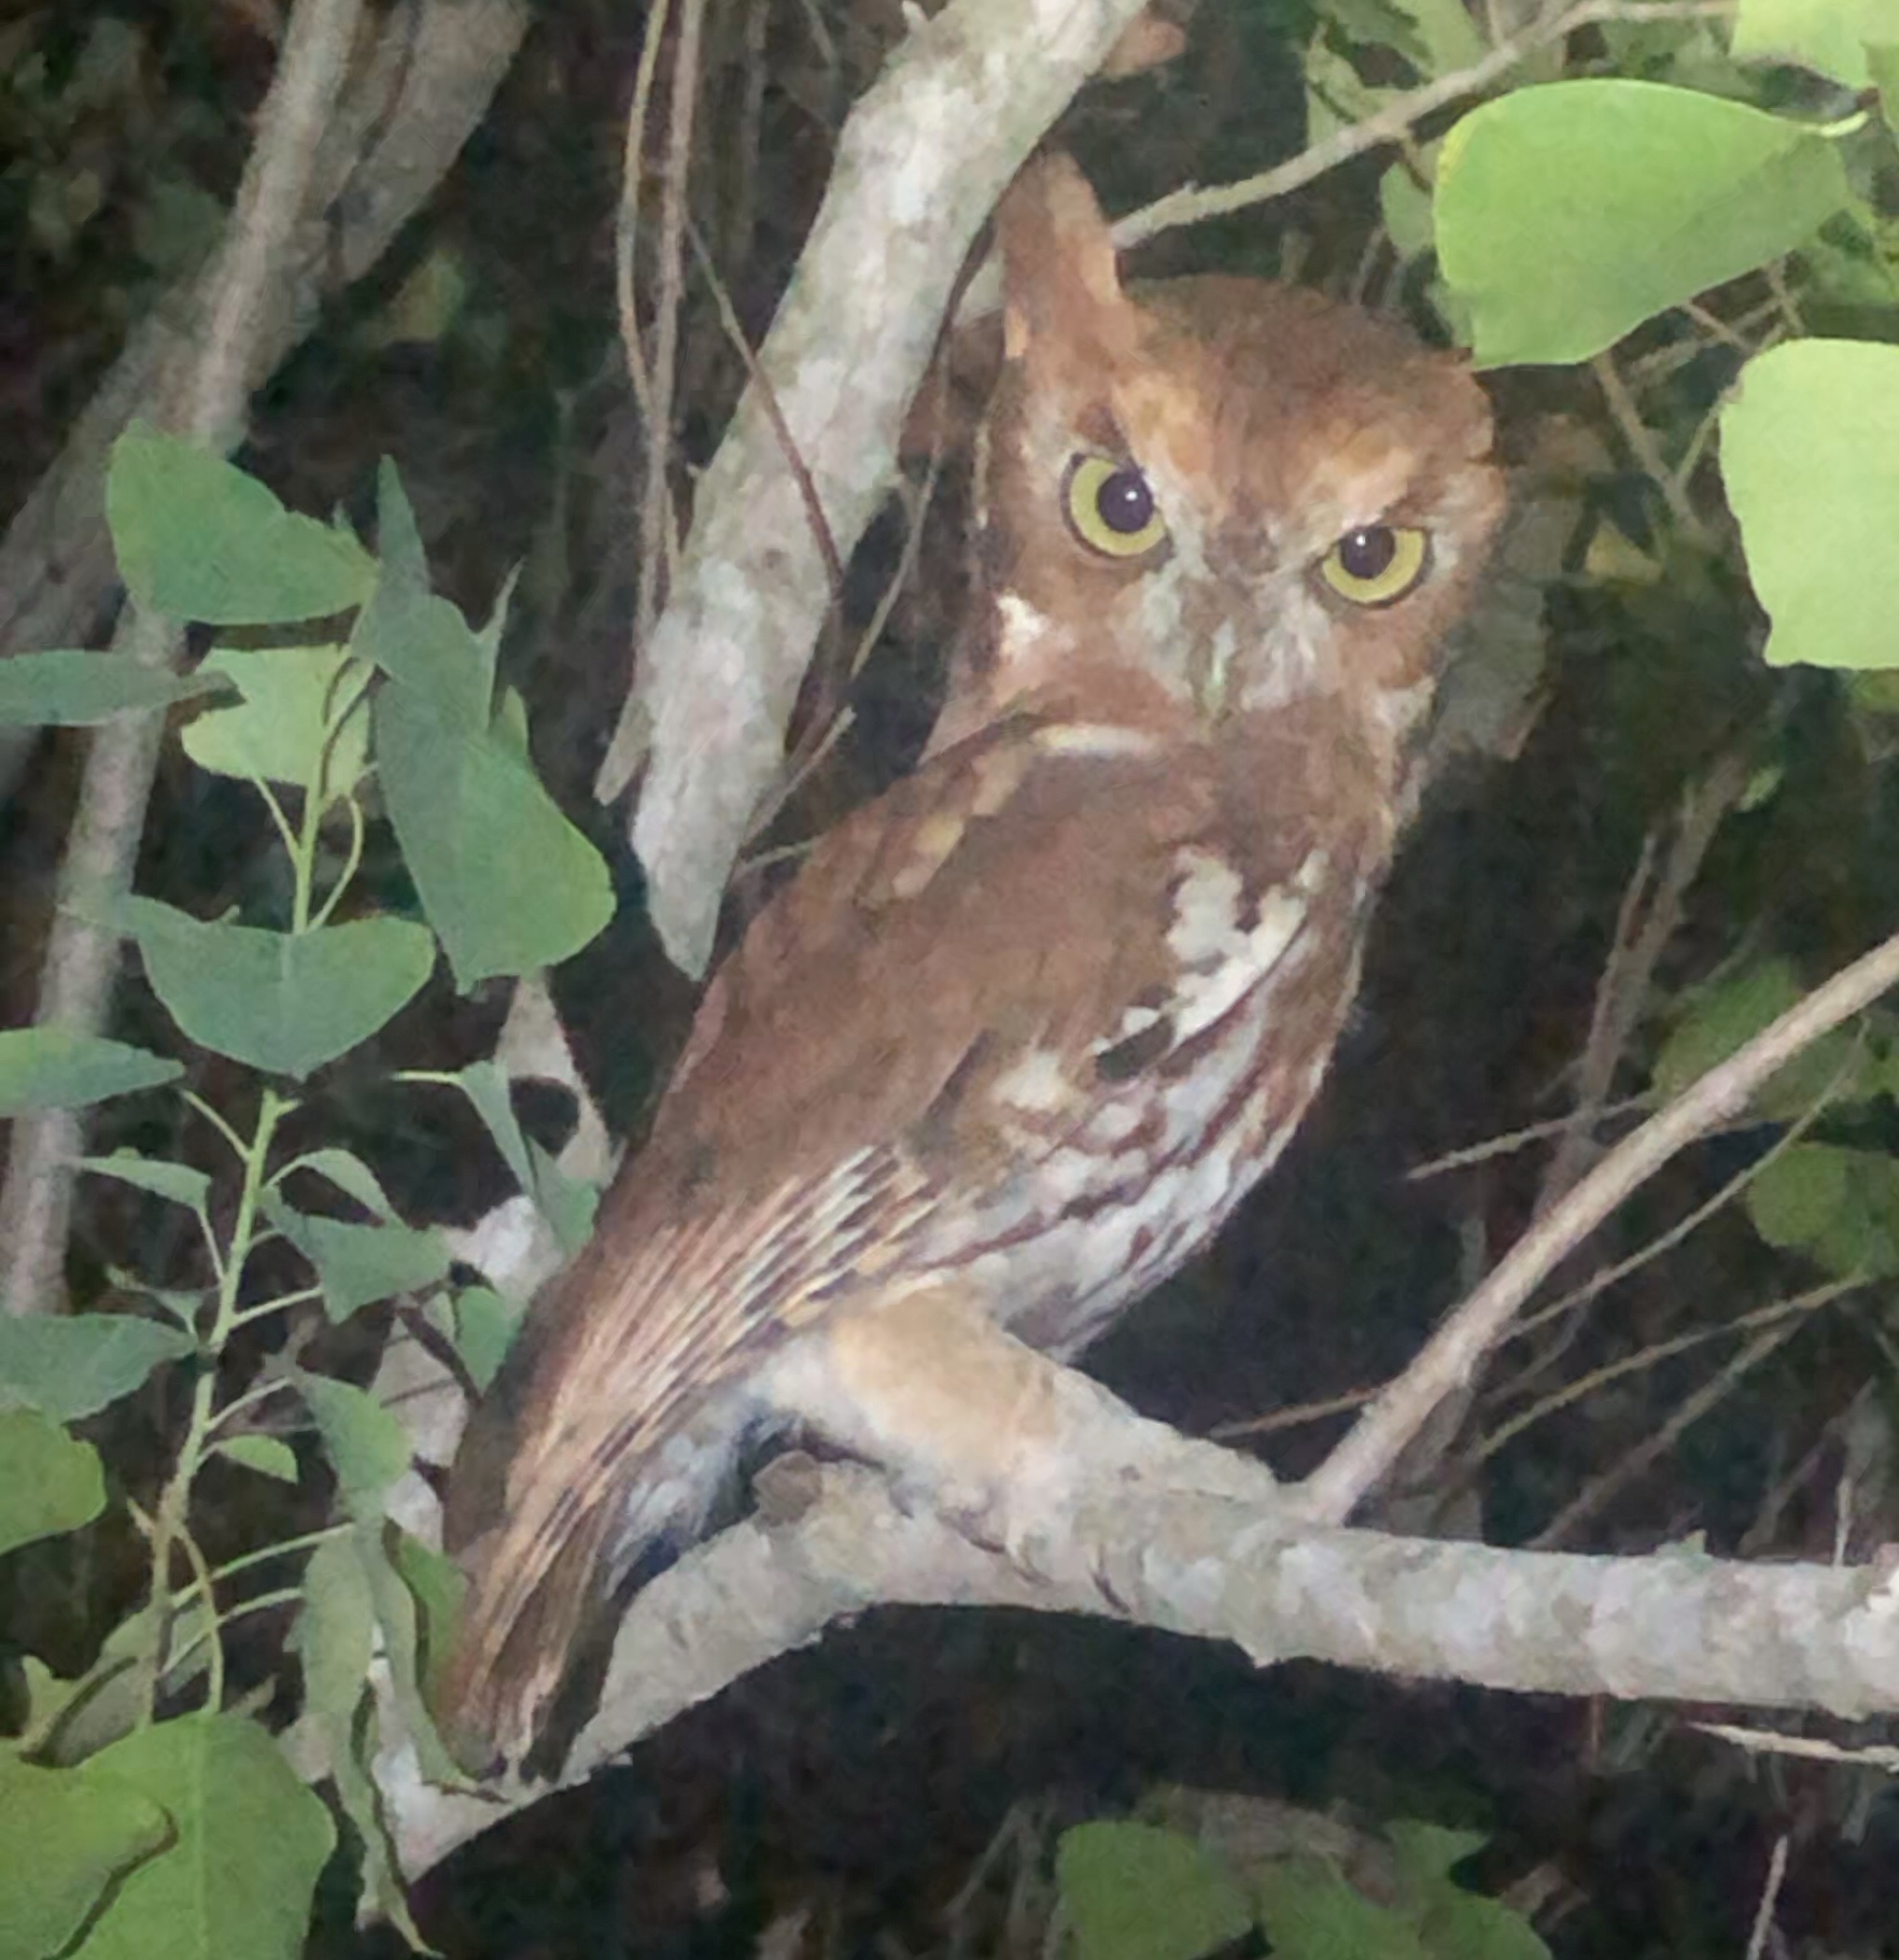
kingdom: Animalia
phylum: Chordata
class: Aves
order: Strigiformes
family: Strigidae
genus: Megascops
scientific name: Megascops asio
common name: Eastern screech-owl
